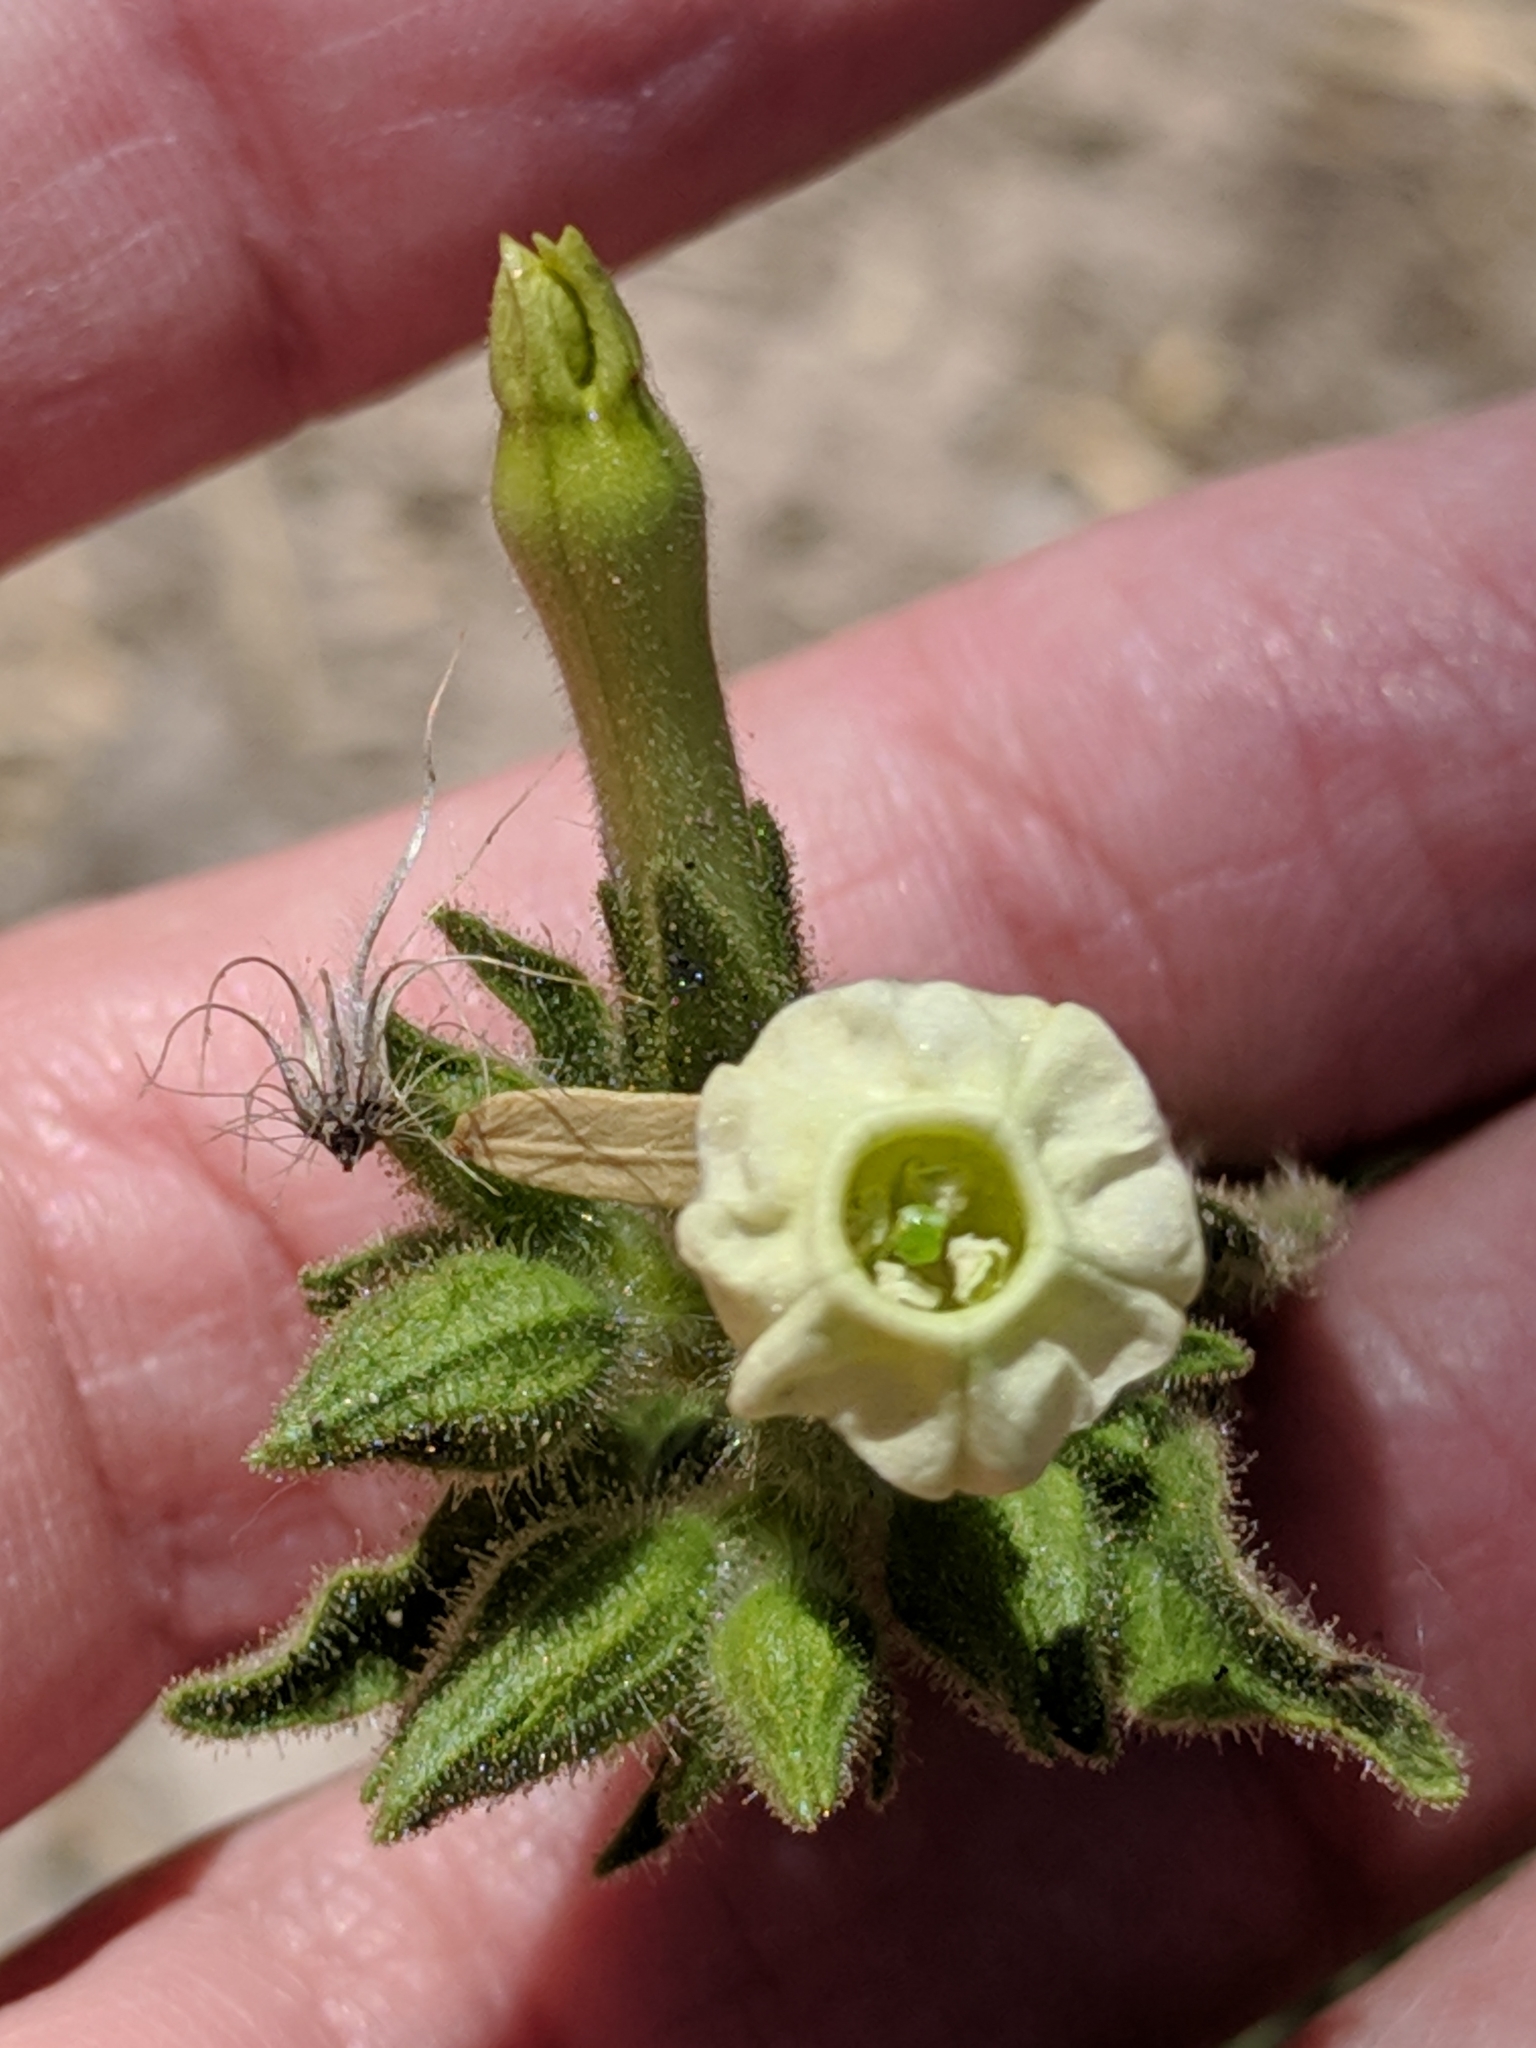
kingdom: Plantae
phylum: Tracheophyta
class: Magnoliopsida
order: Solanales
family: Solanaceae
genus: Nicotiana
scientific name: Nicotiana obtusifolia
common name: Desert tobacco
